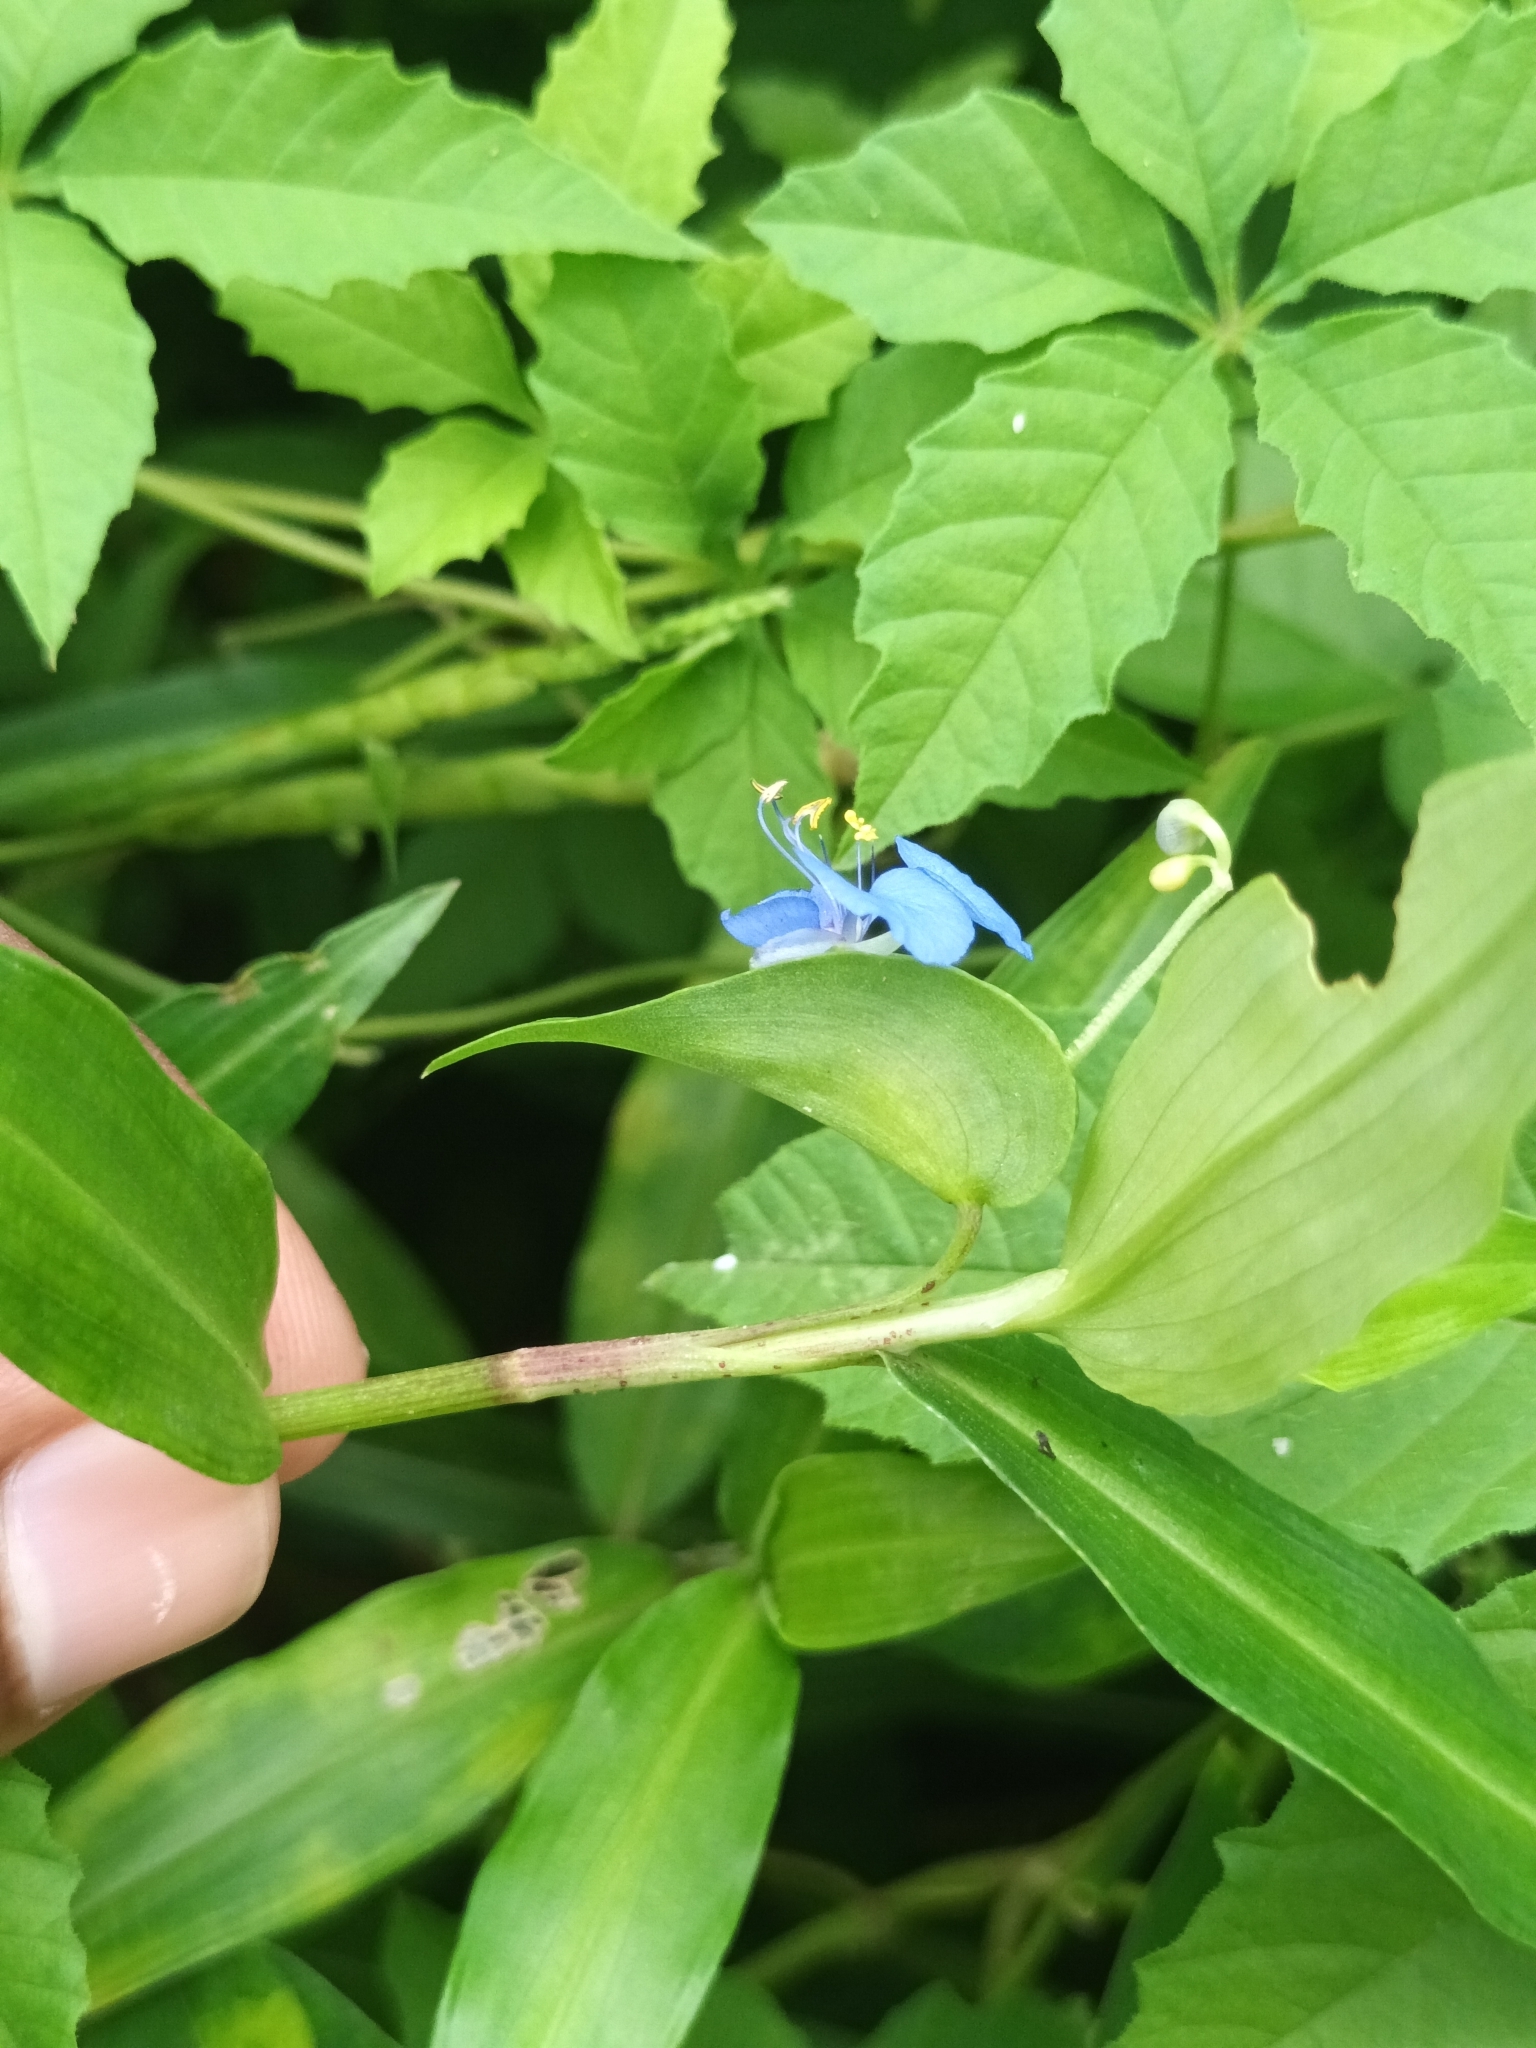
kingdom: Plantae
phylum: Tracheophyta
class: Liliopsida
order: Commelinales
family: Commelinaceae
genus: Commelina
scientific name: Commelina diffusa
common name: Climbing dayflower
